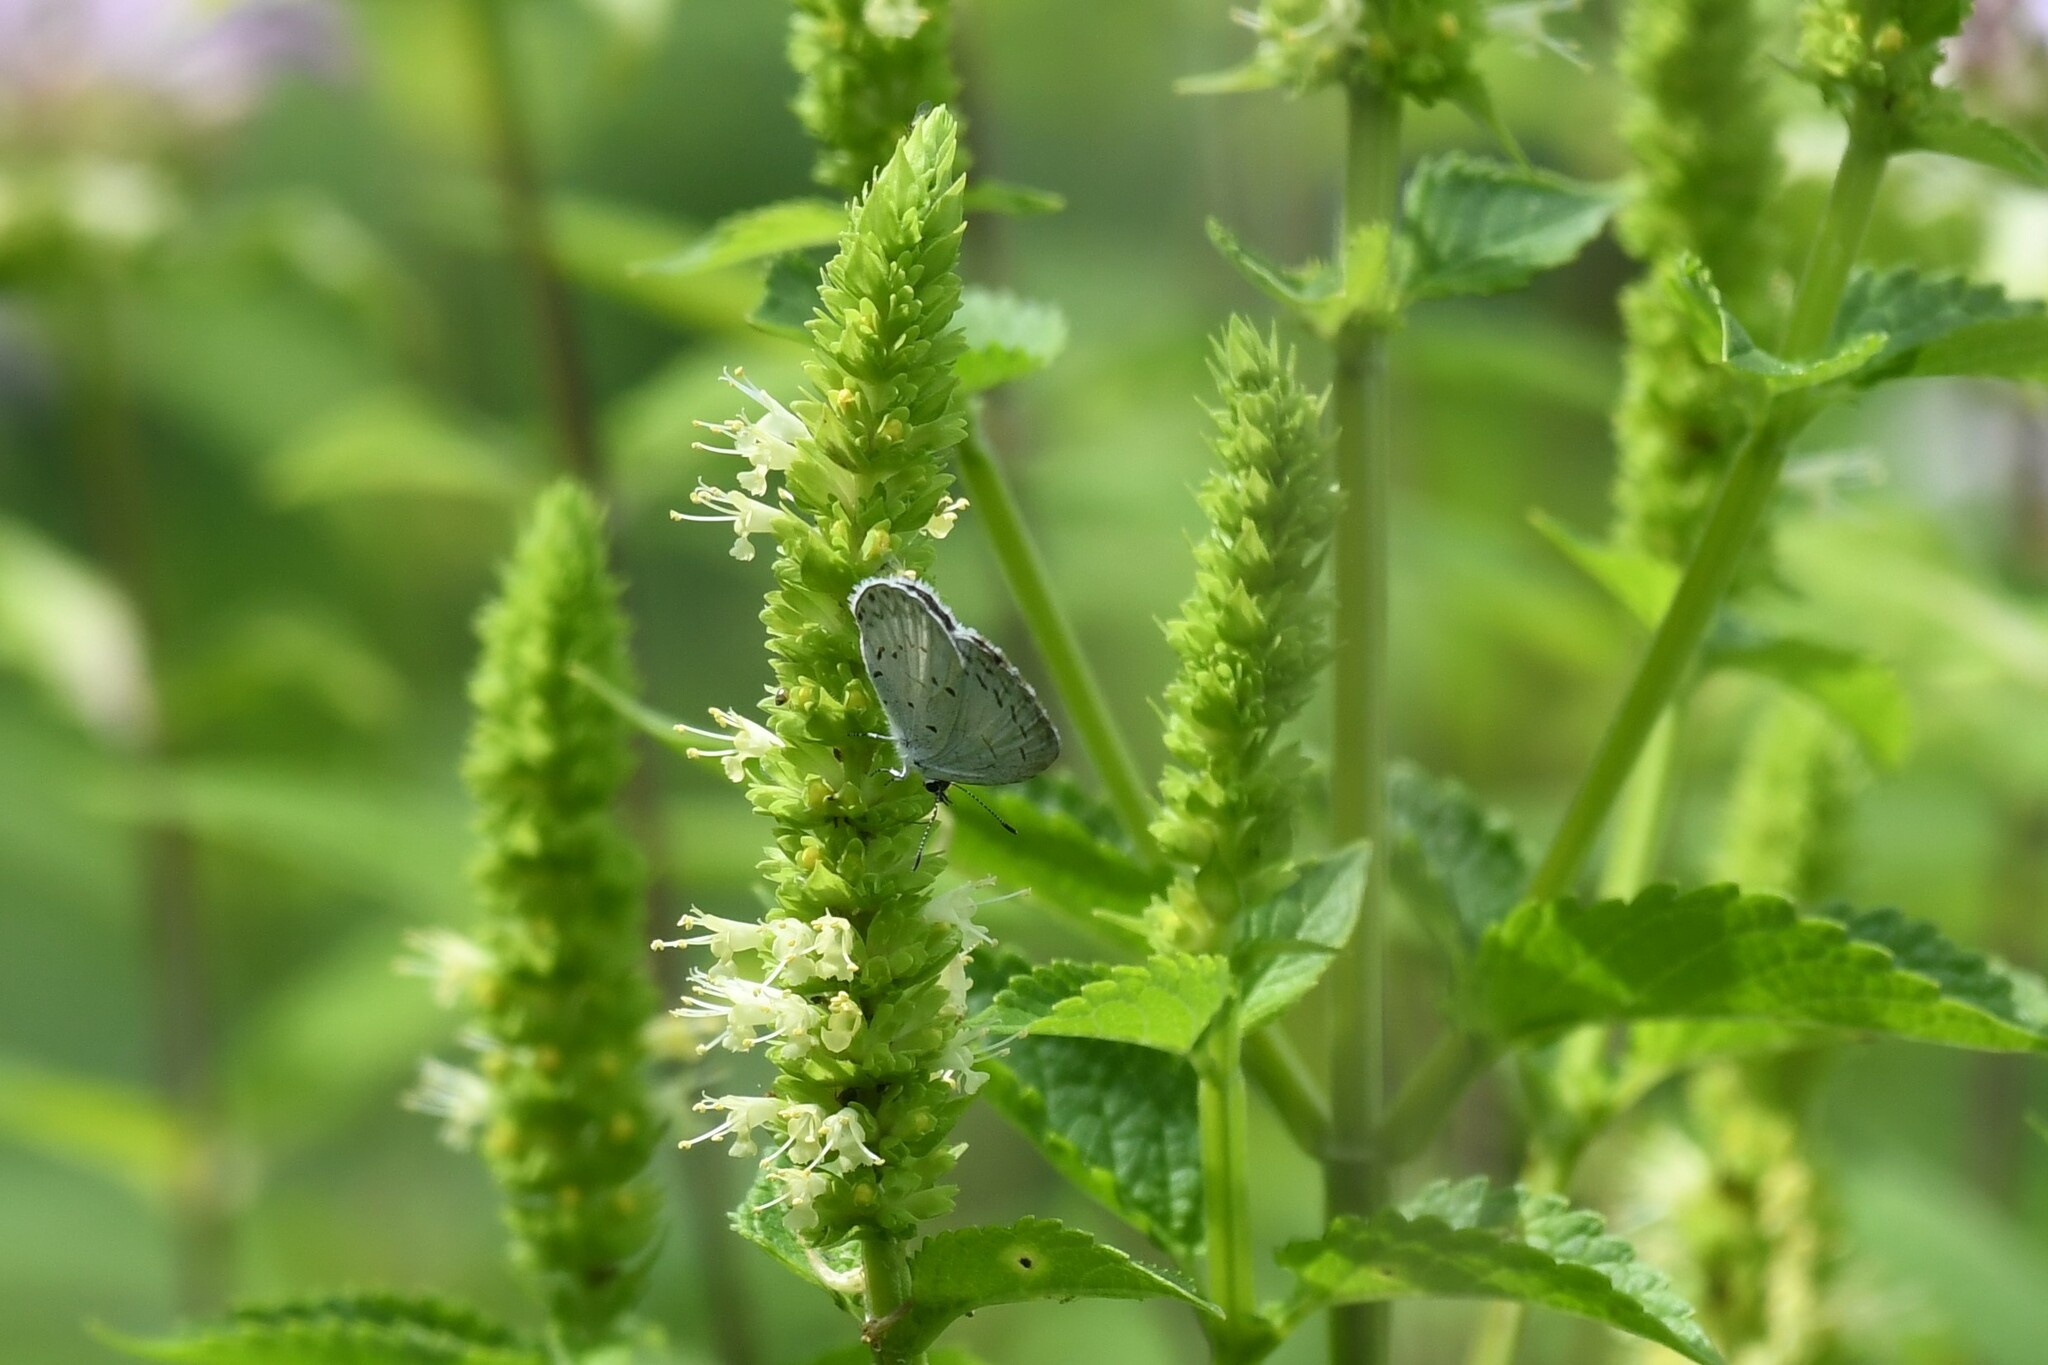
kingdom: Animalia
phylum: Arthropoda
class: Insecta
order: Lepidoptera
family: Lycaenidae
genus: Cyaniris
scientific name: Cyaniris neglecta
